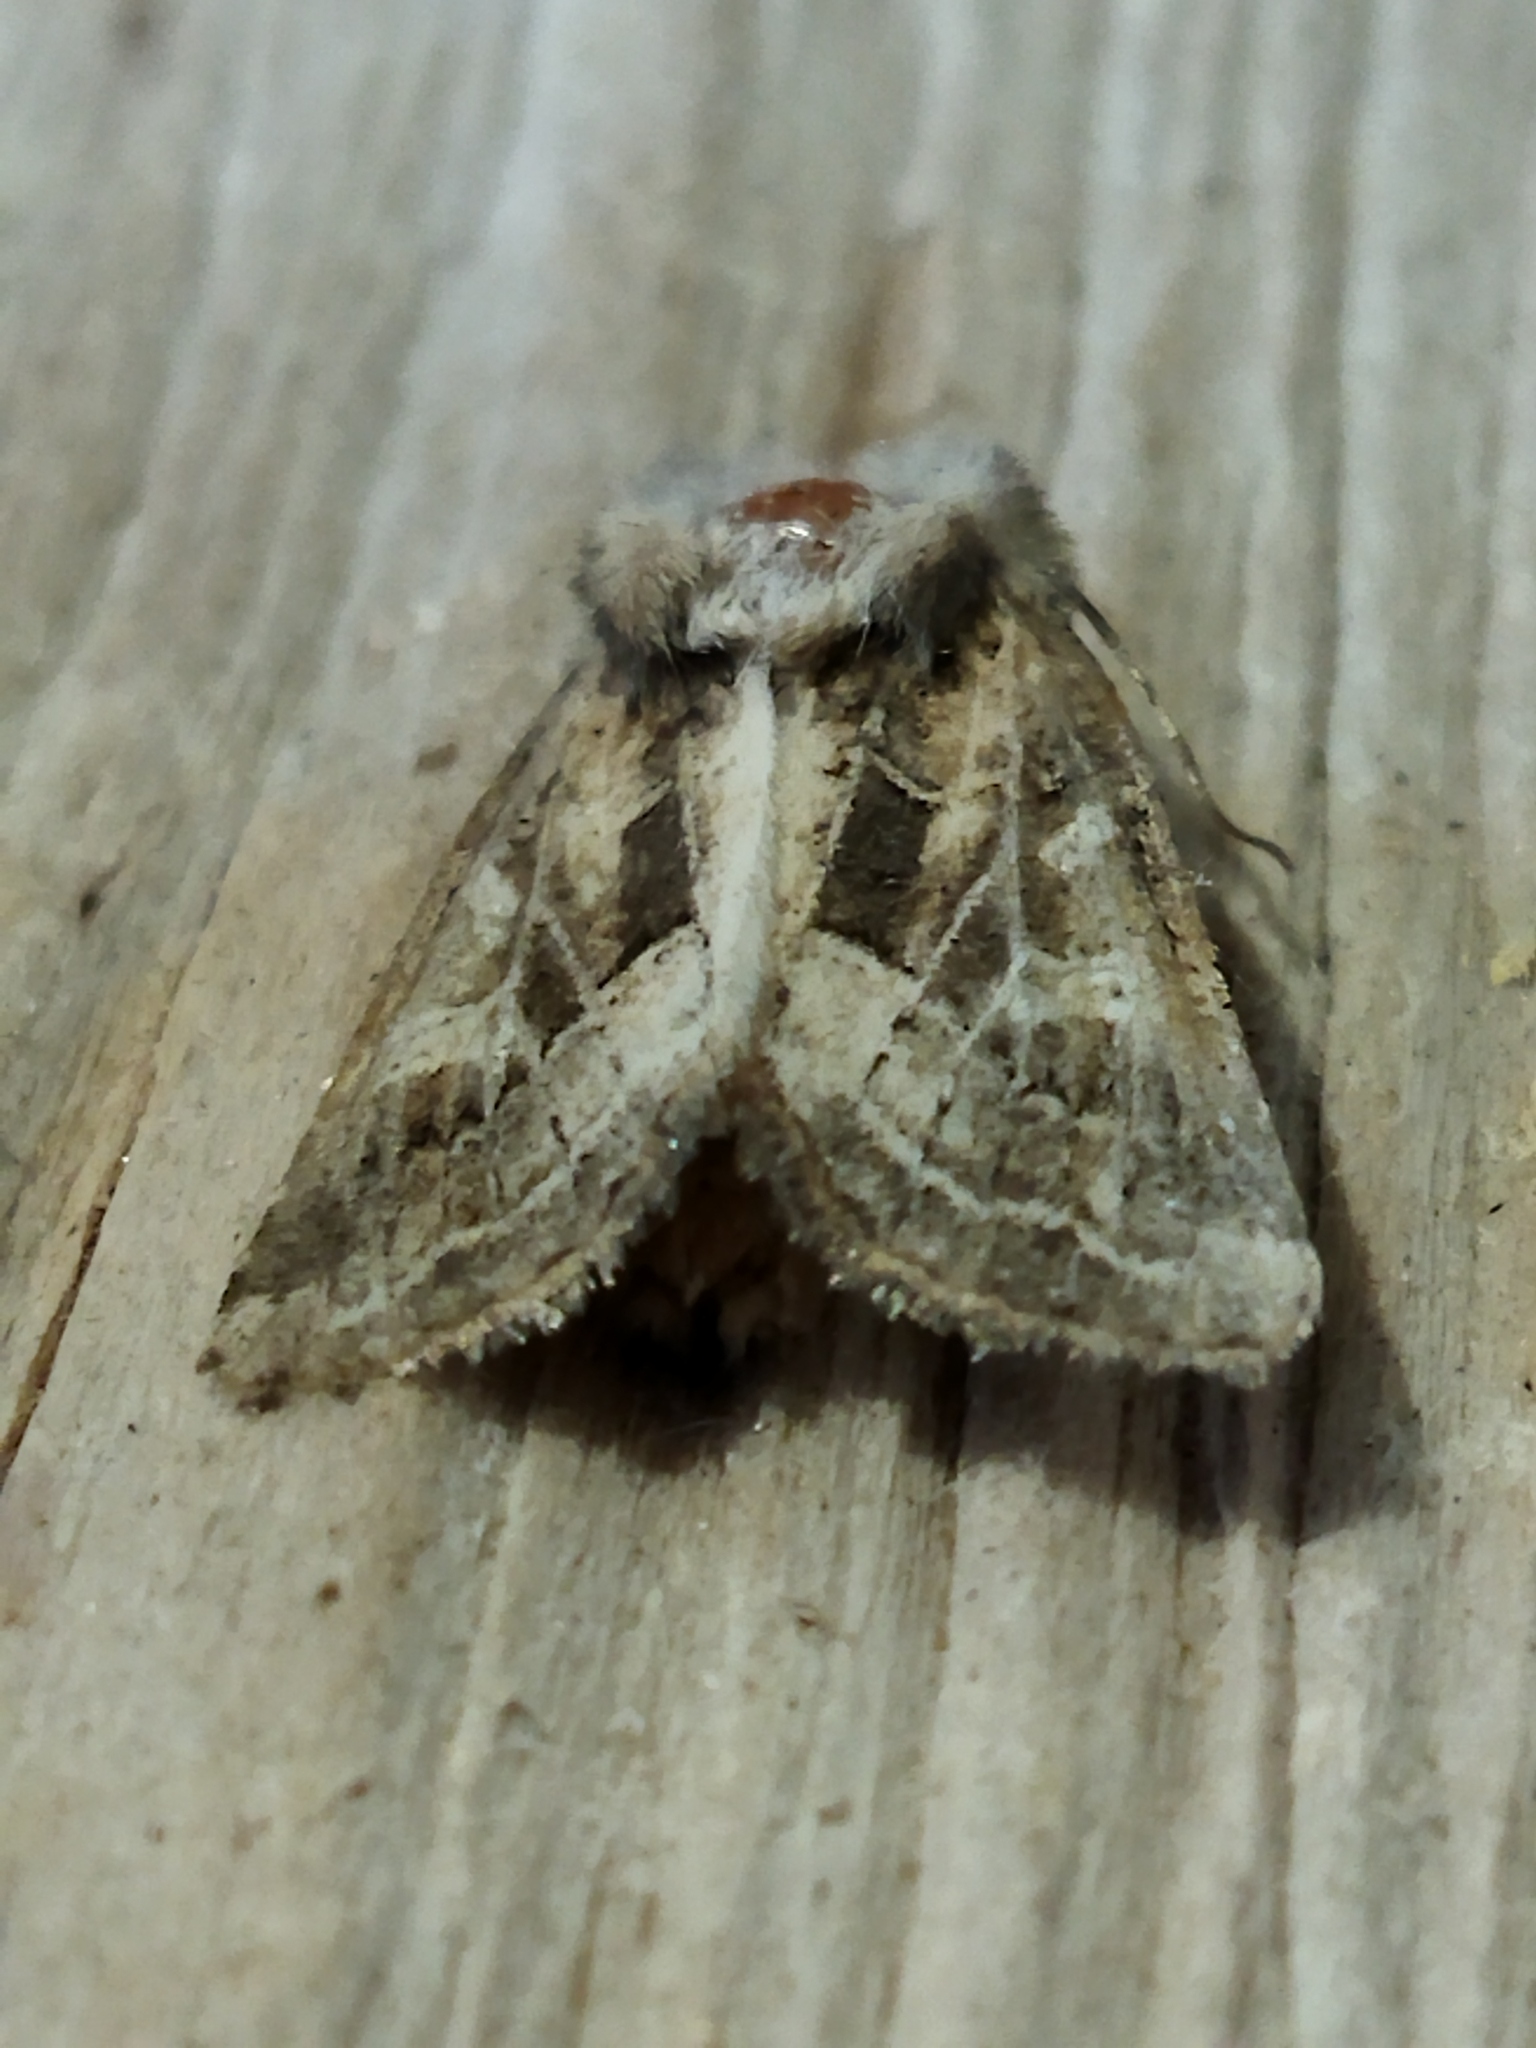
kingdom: Animalia
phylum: Arthropoda
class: Insecta
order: Lepidoptera
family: Noctuidae
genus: Luperina
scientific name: Luperina dumerilii
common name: Dumeril's rustic
